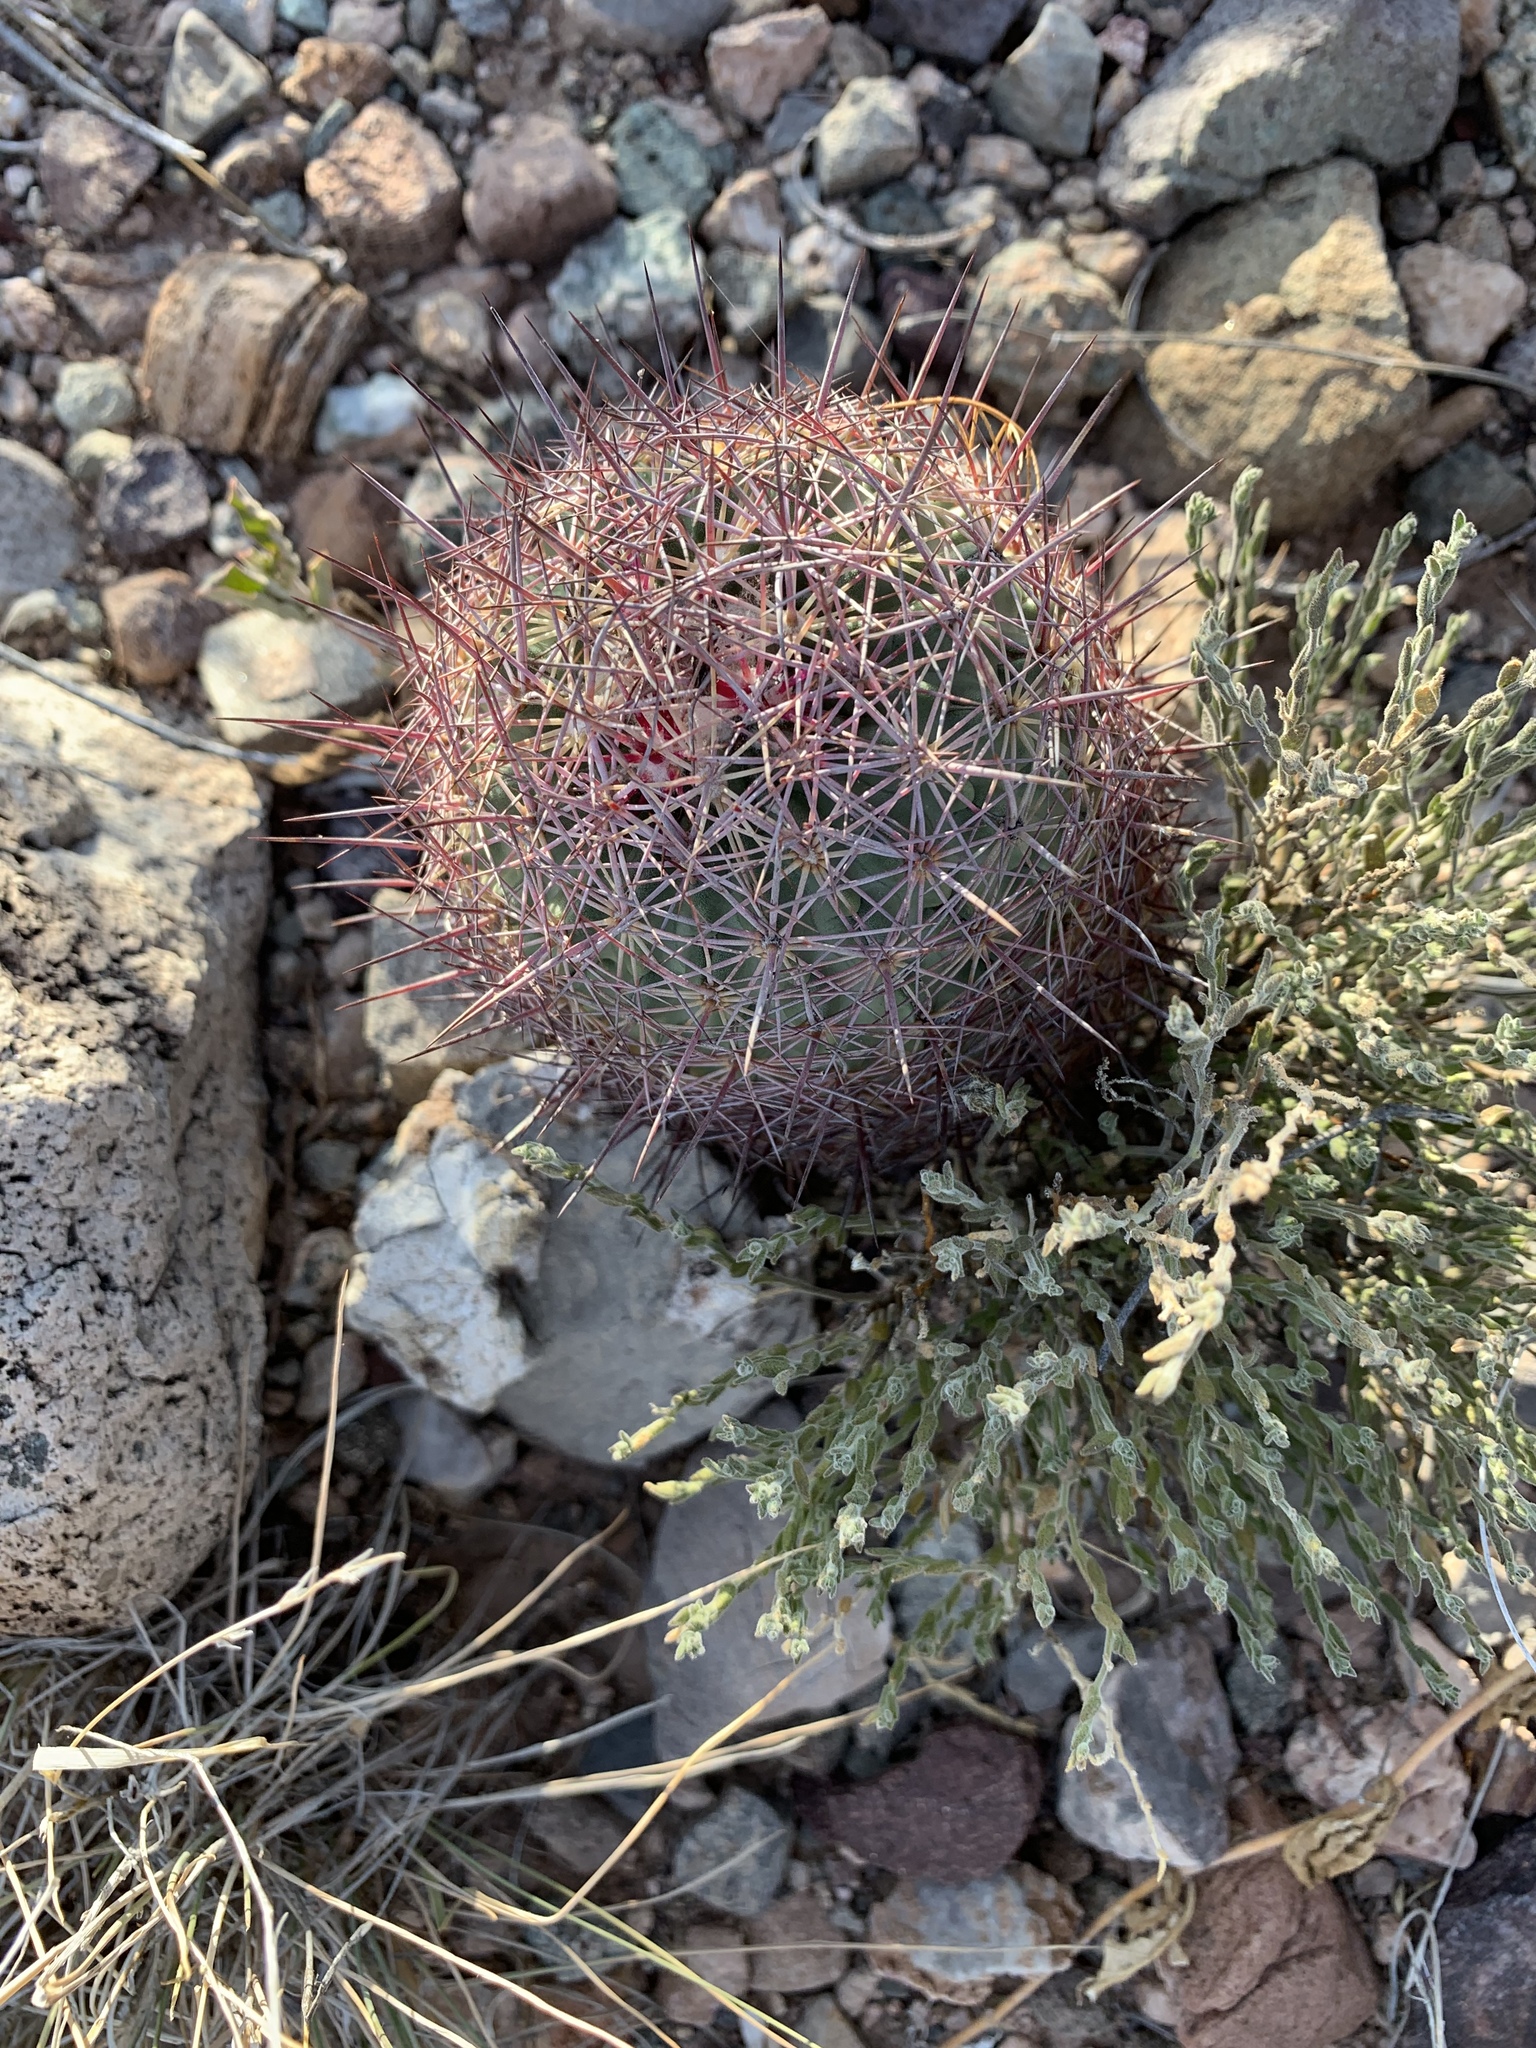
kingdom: Plantae
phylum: Tracheophyta
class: Magnoliopsida
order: Caryophyllales
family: Cactaceae
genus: Sclerocactus
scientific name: Sclerocactus johnsonii
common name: Eight-spine fishhook cactus
